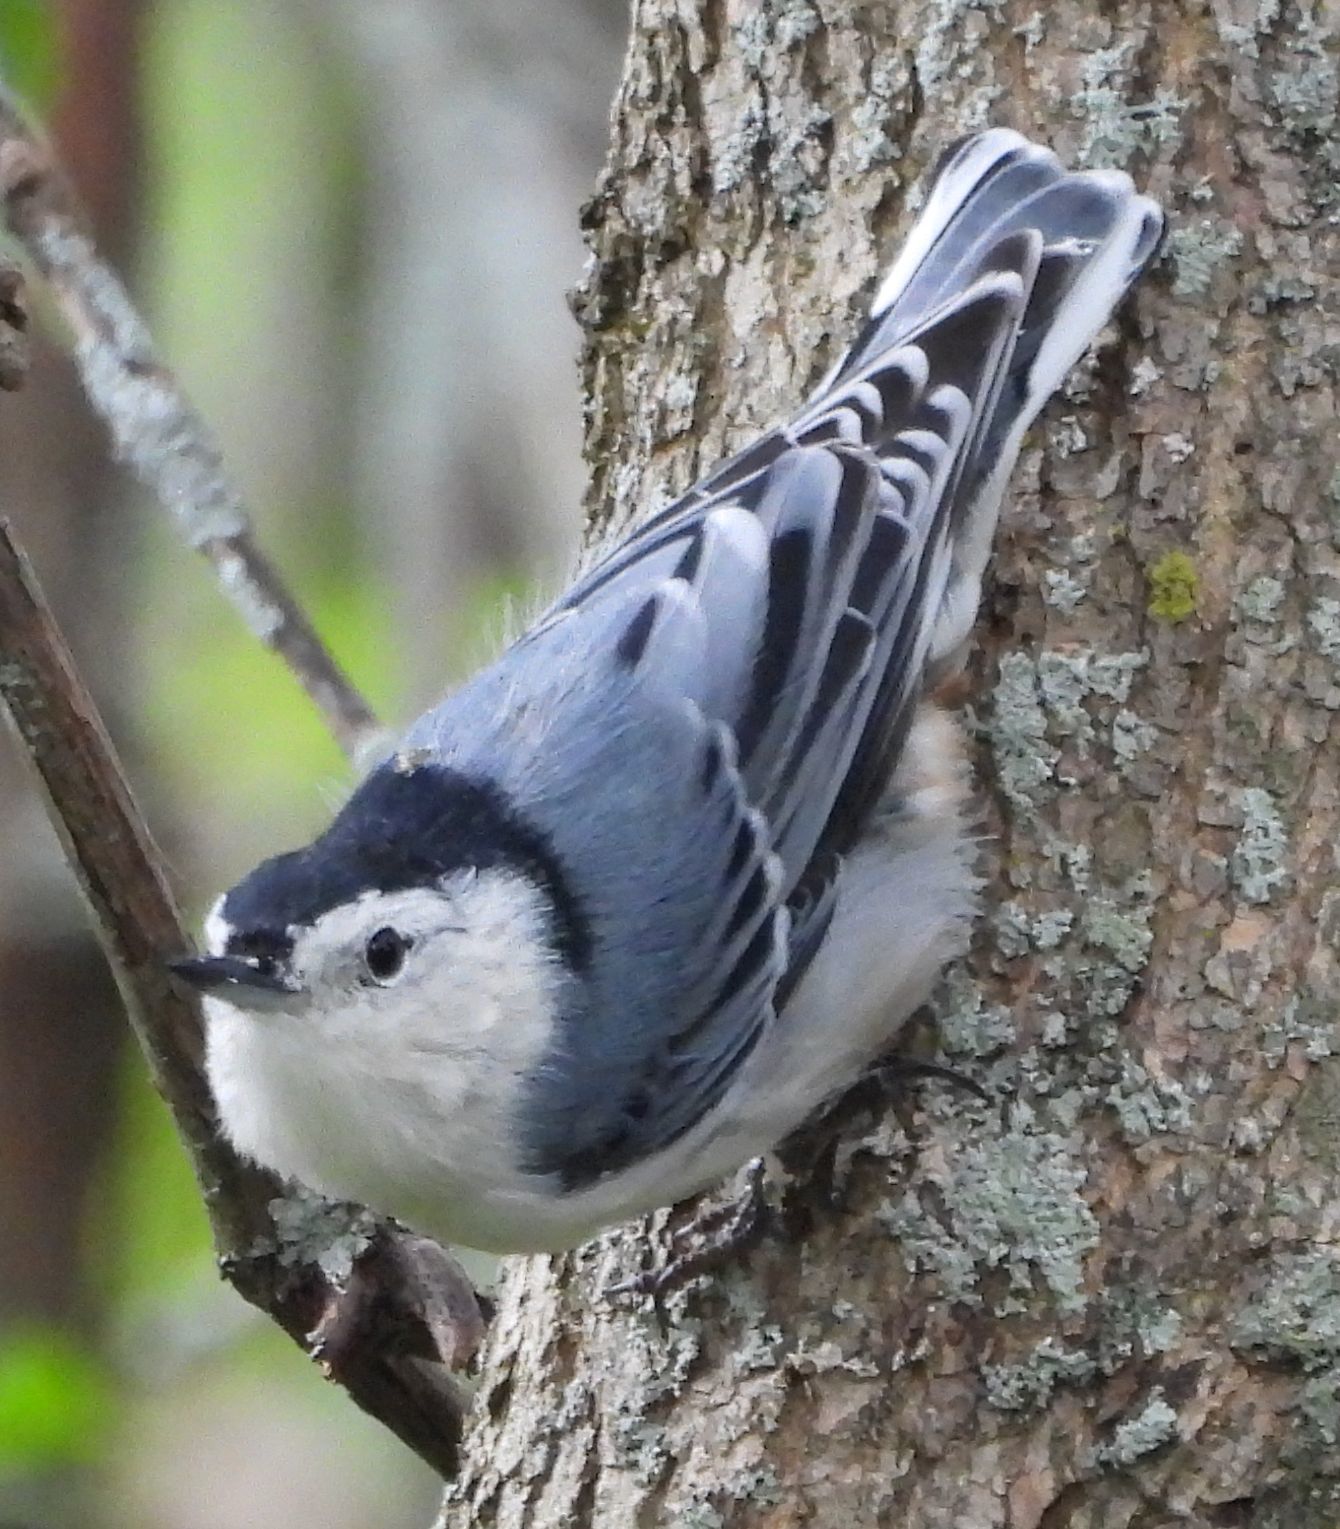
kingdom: Animalia
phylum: Chordata
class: Aves
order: Passeriformes
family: Sittidae
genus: Sitta
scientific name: Sitta carolinensis
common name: White-breasted nuthatch
